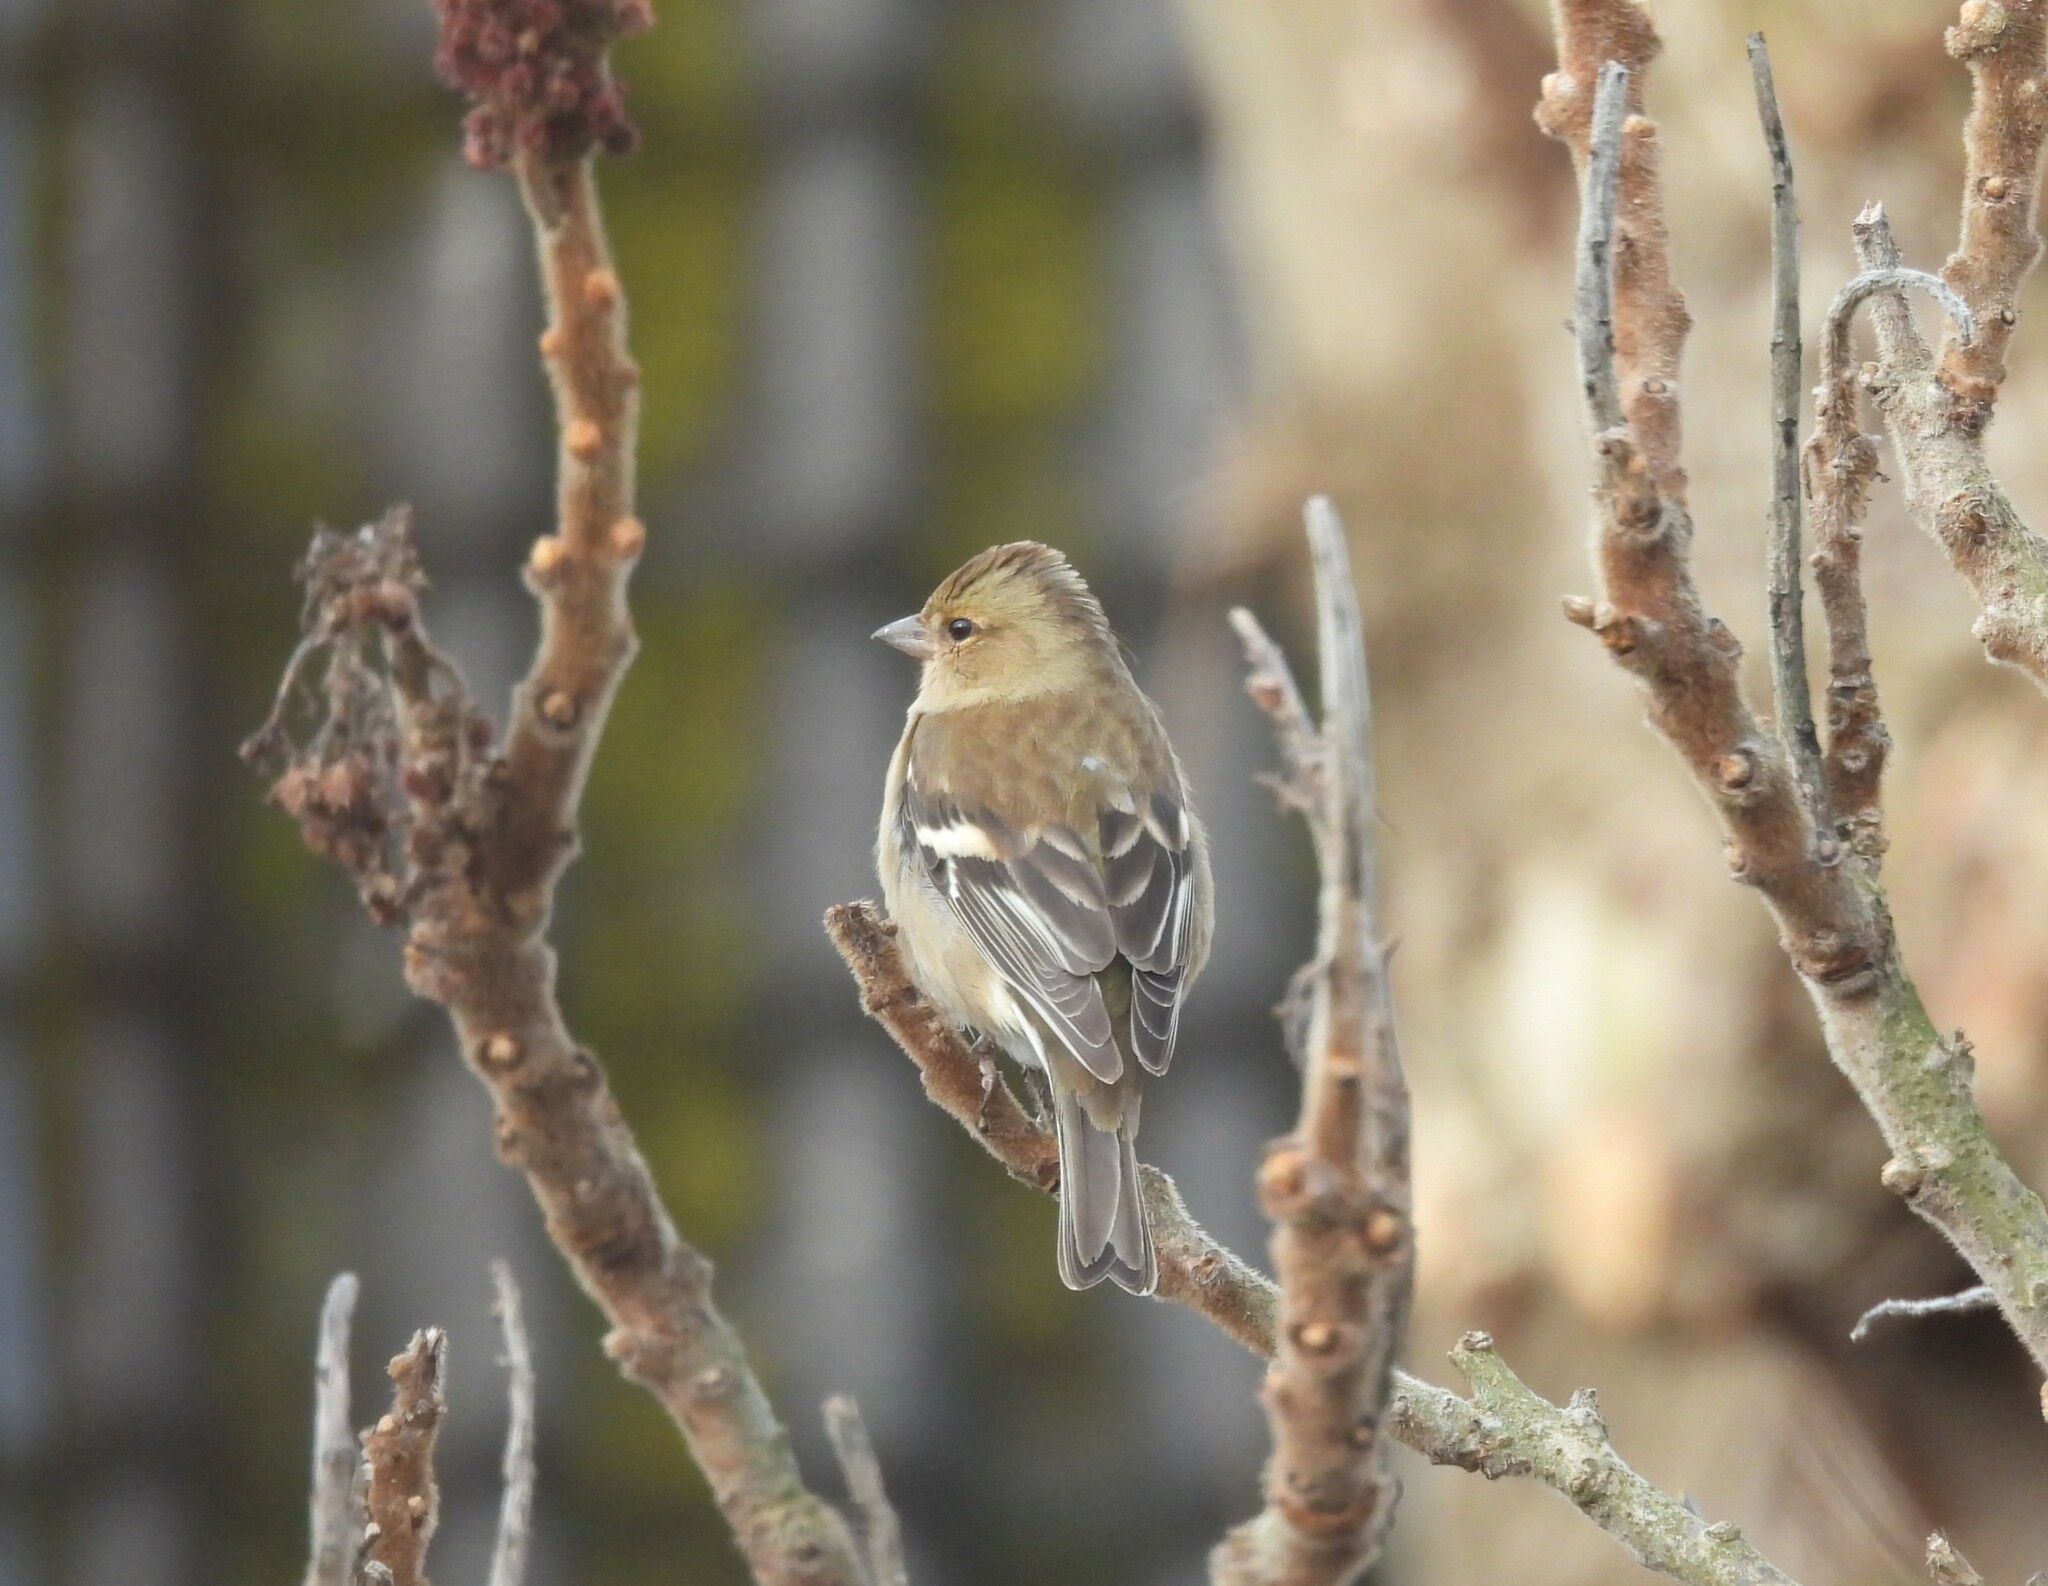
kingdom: Animalia
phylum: Chordata
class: Aves
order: Passeriformes
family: Fringillidae
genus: Fringilla
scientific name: Fringilla coelebs
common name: Common chaffinch
